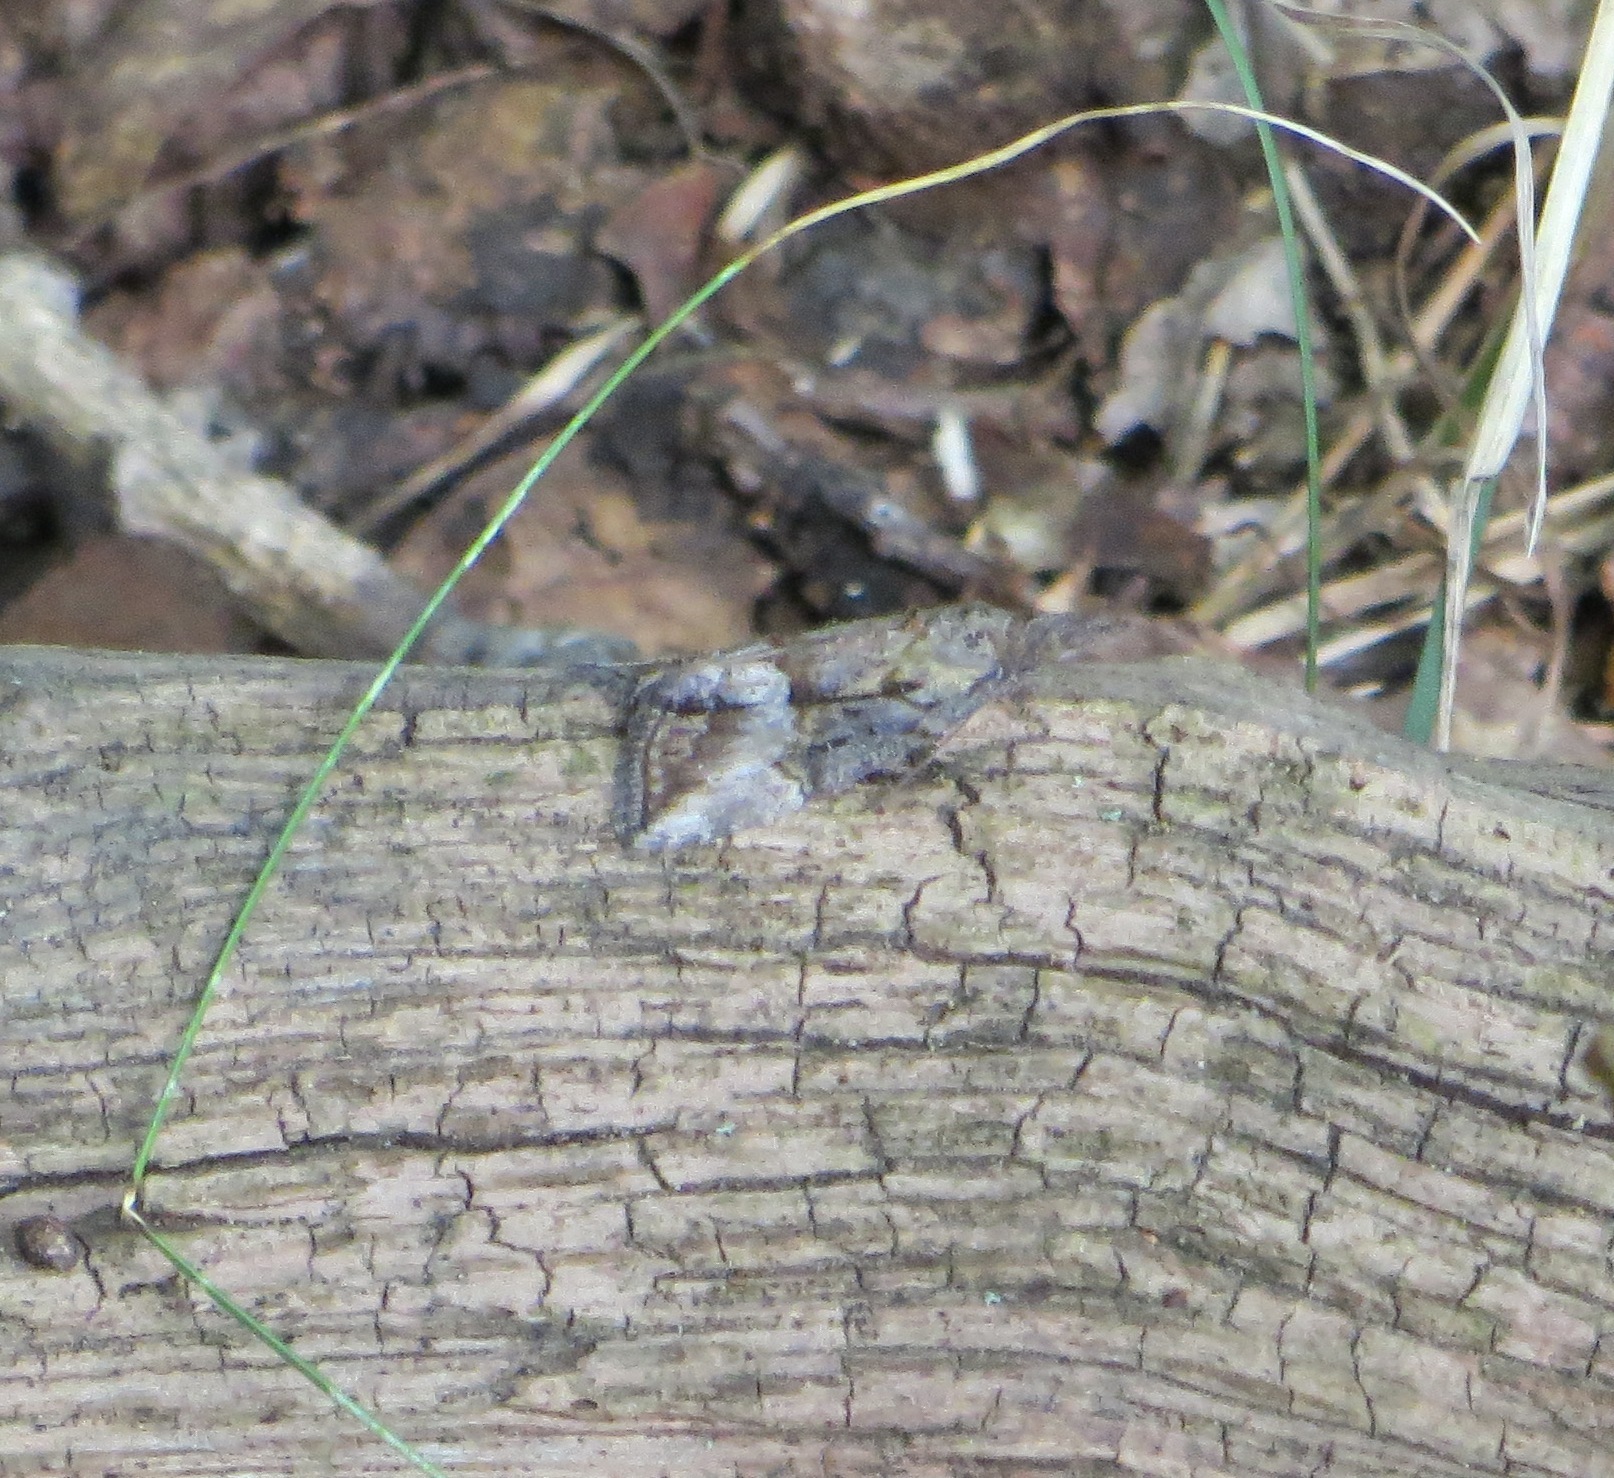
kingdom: Animalia
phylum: Arthropoda
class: Insecta
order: Lepidoptera
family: Erebidae
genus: Hypena
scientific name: Hypena scabra
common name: Green cloverworm
